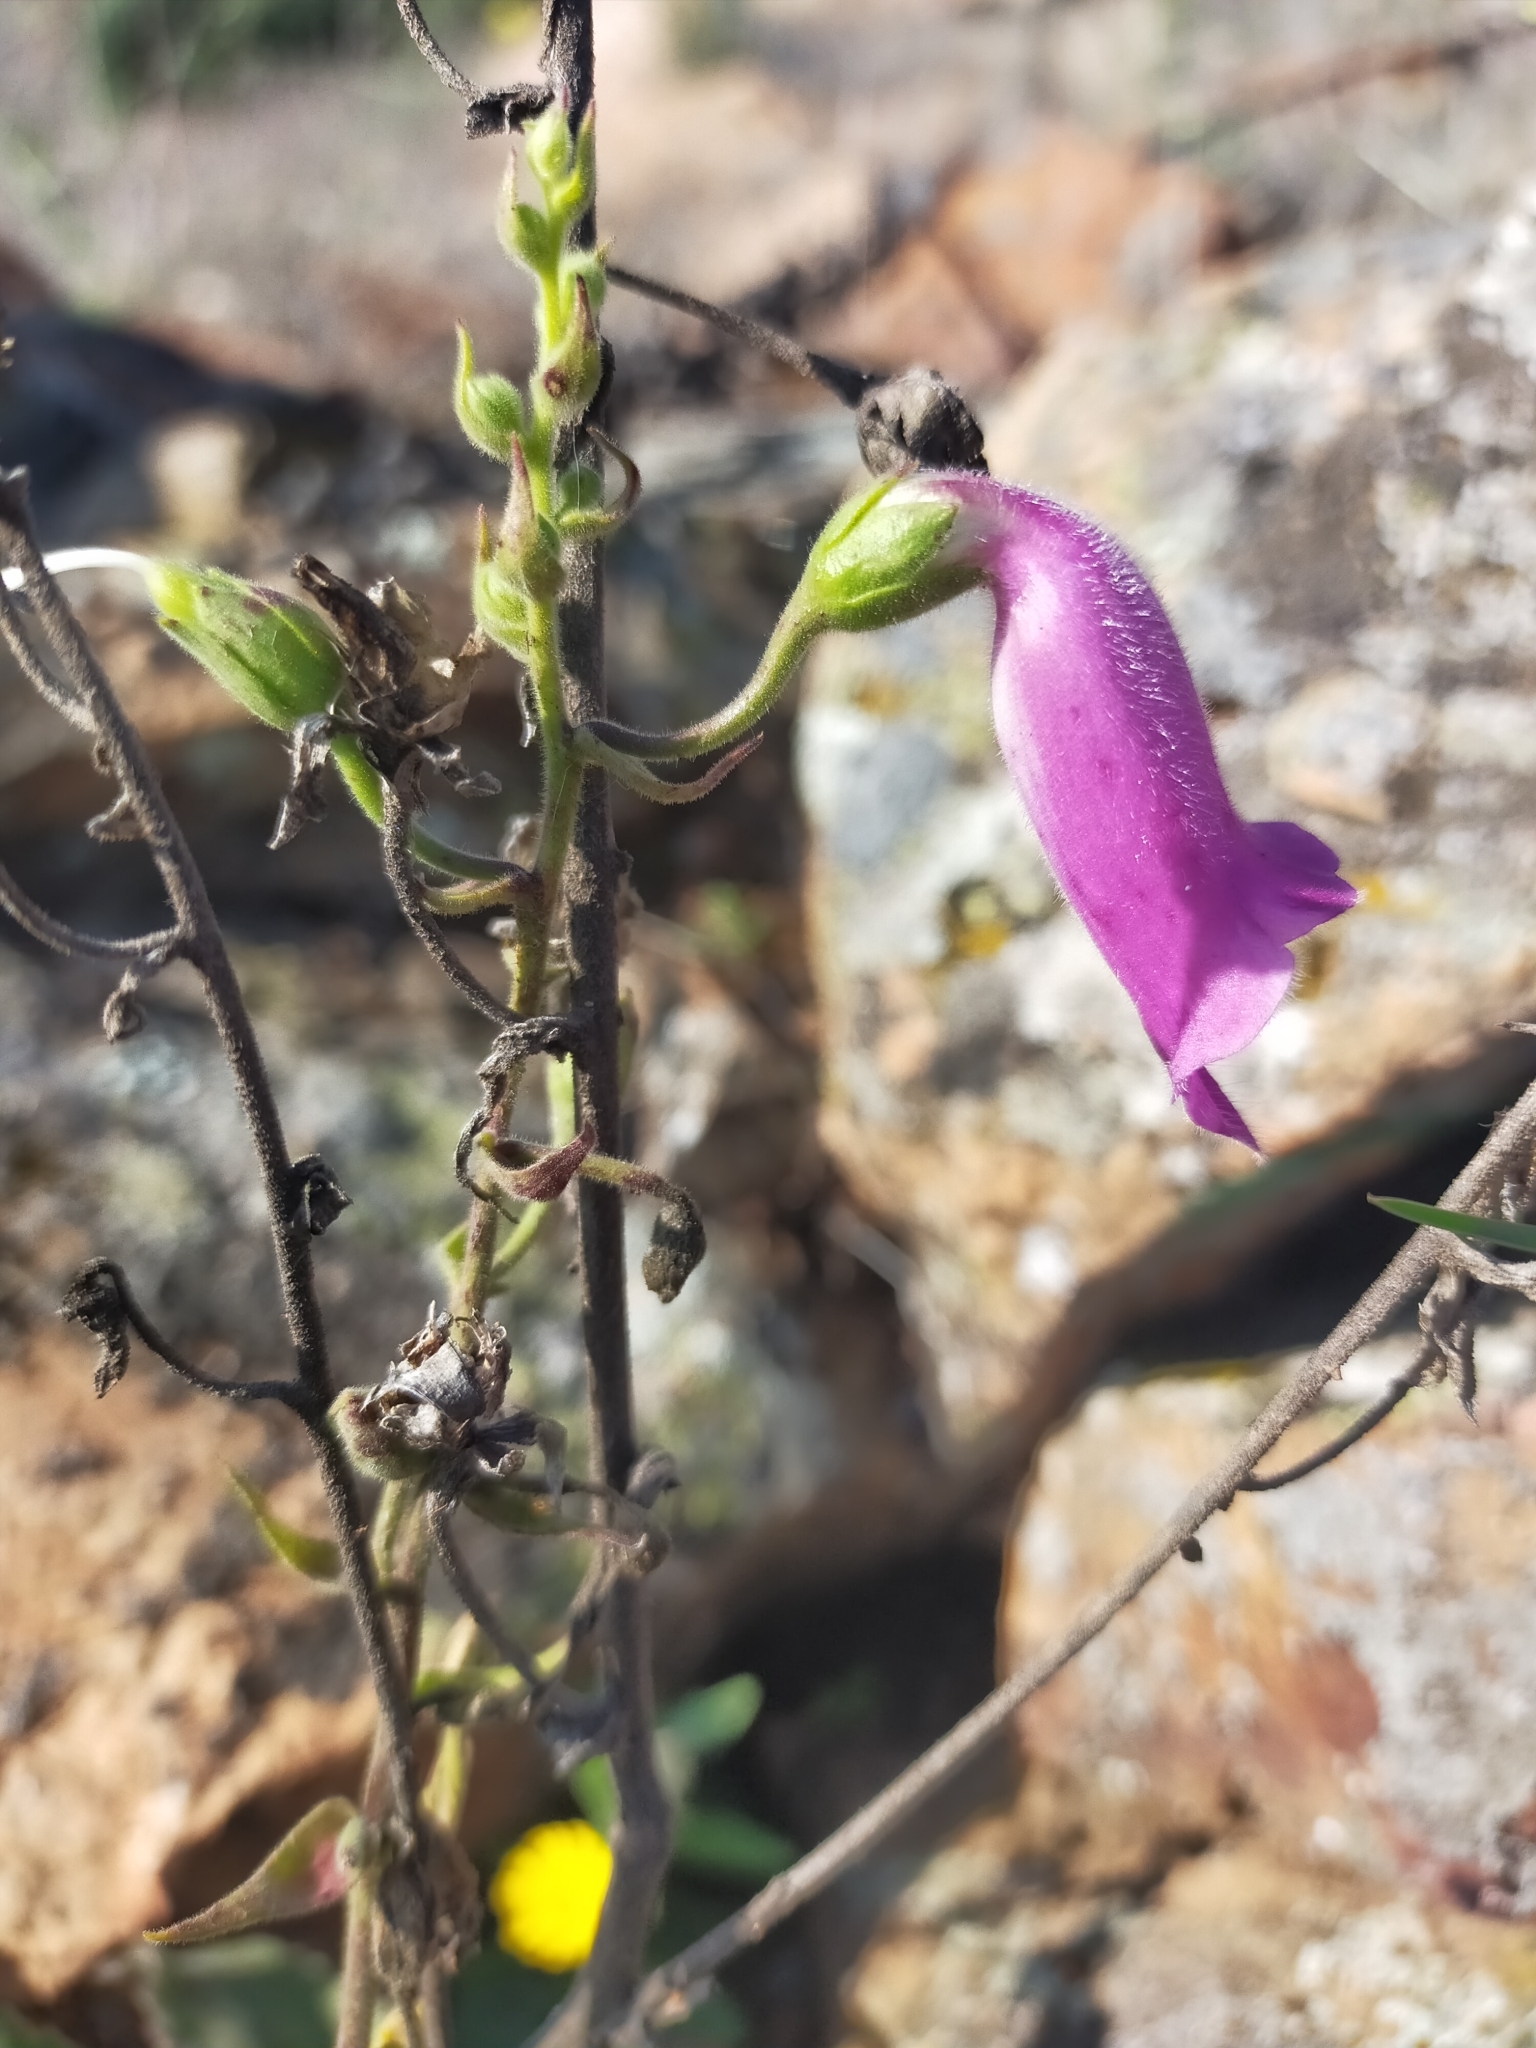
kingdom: Plantae
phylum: Tracheophyta
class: Magnoliopsida
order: Lamiales
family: Plantaginaceae
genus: Digitalis
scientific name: Digitalis thapsi
